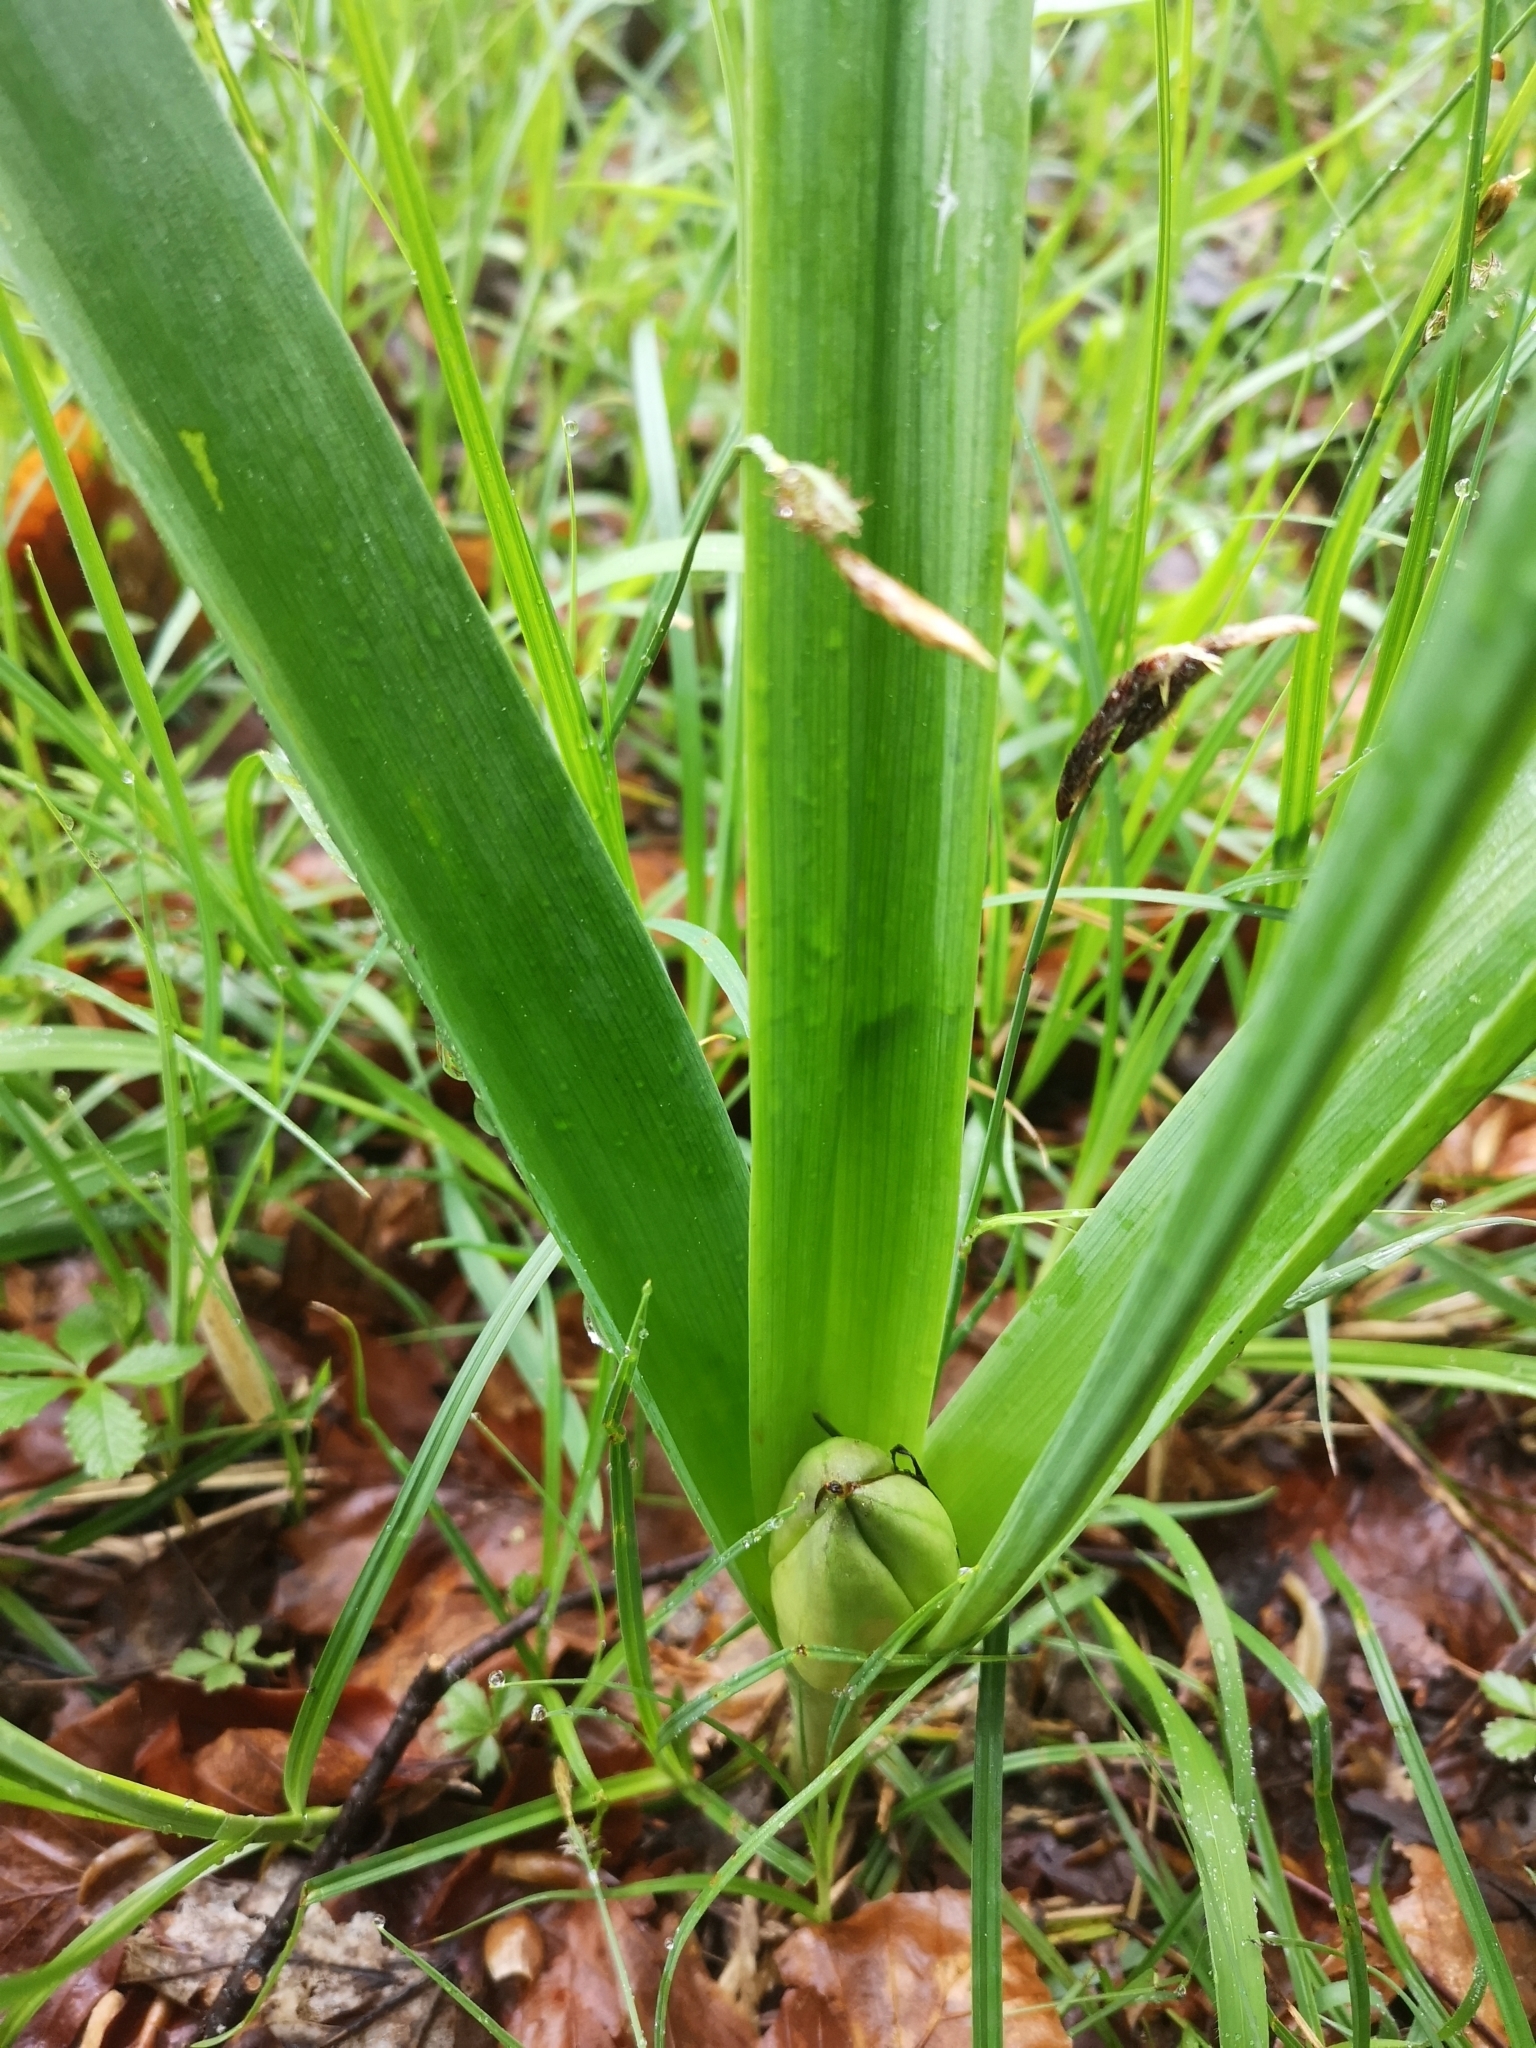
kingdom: Plantae
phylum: Tracheophyta
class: Liliopsida
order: Liliales
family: Colchicaceae
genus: Colchicum
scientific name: Colchicum autumnale
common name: Autumn crocus
